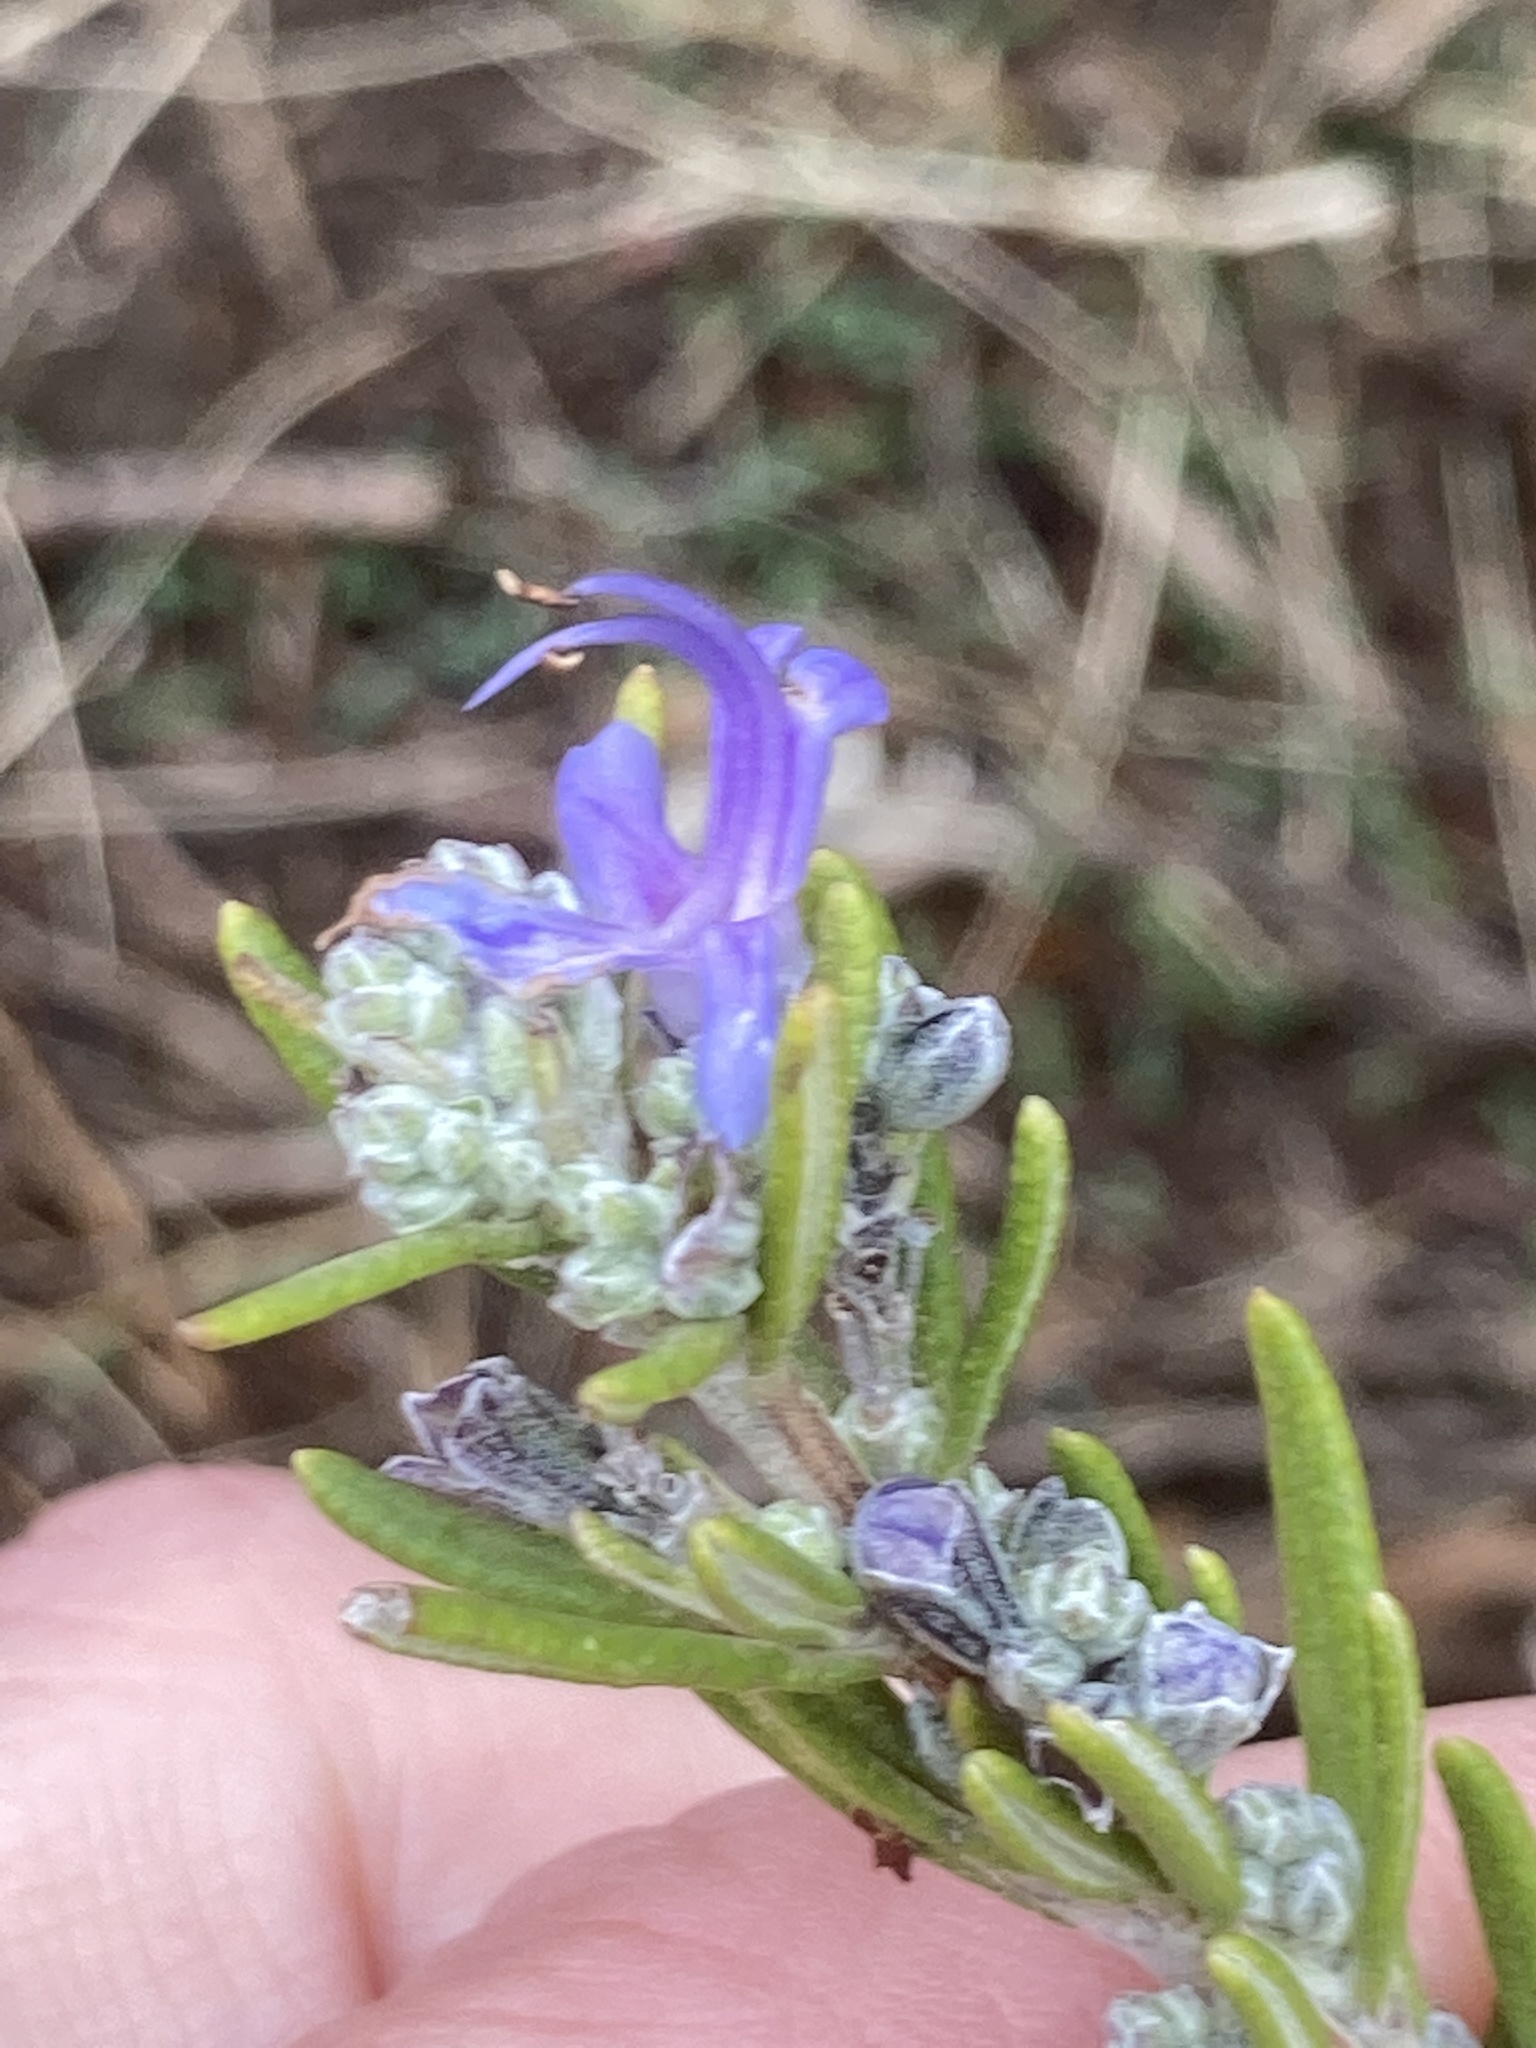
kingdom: Plantae
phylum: Tracheophyta
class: Magnoliopsida
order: Lamiales
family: Lamiaceae
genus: Salvia
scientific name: Salvia rosmarinus
